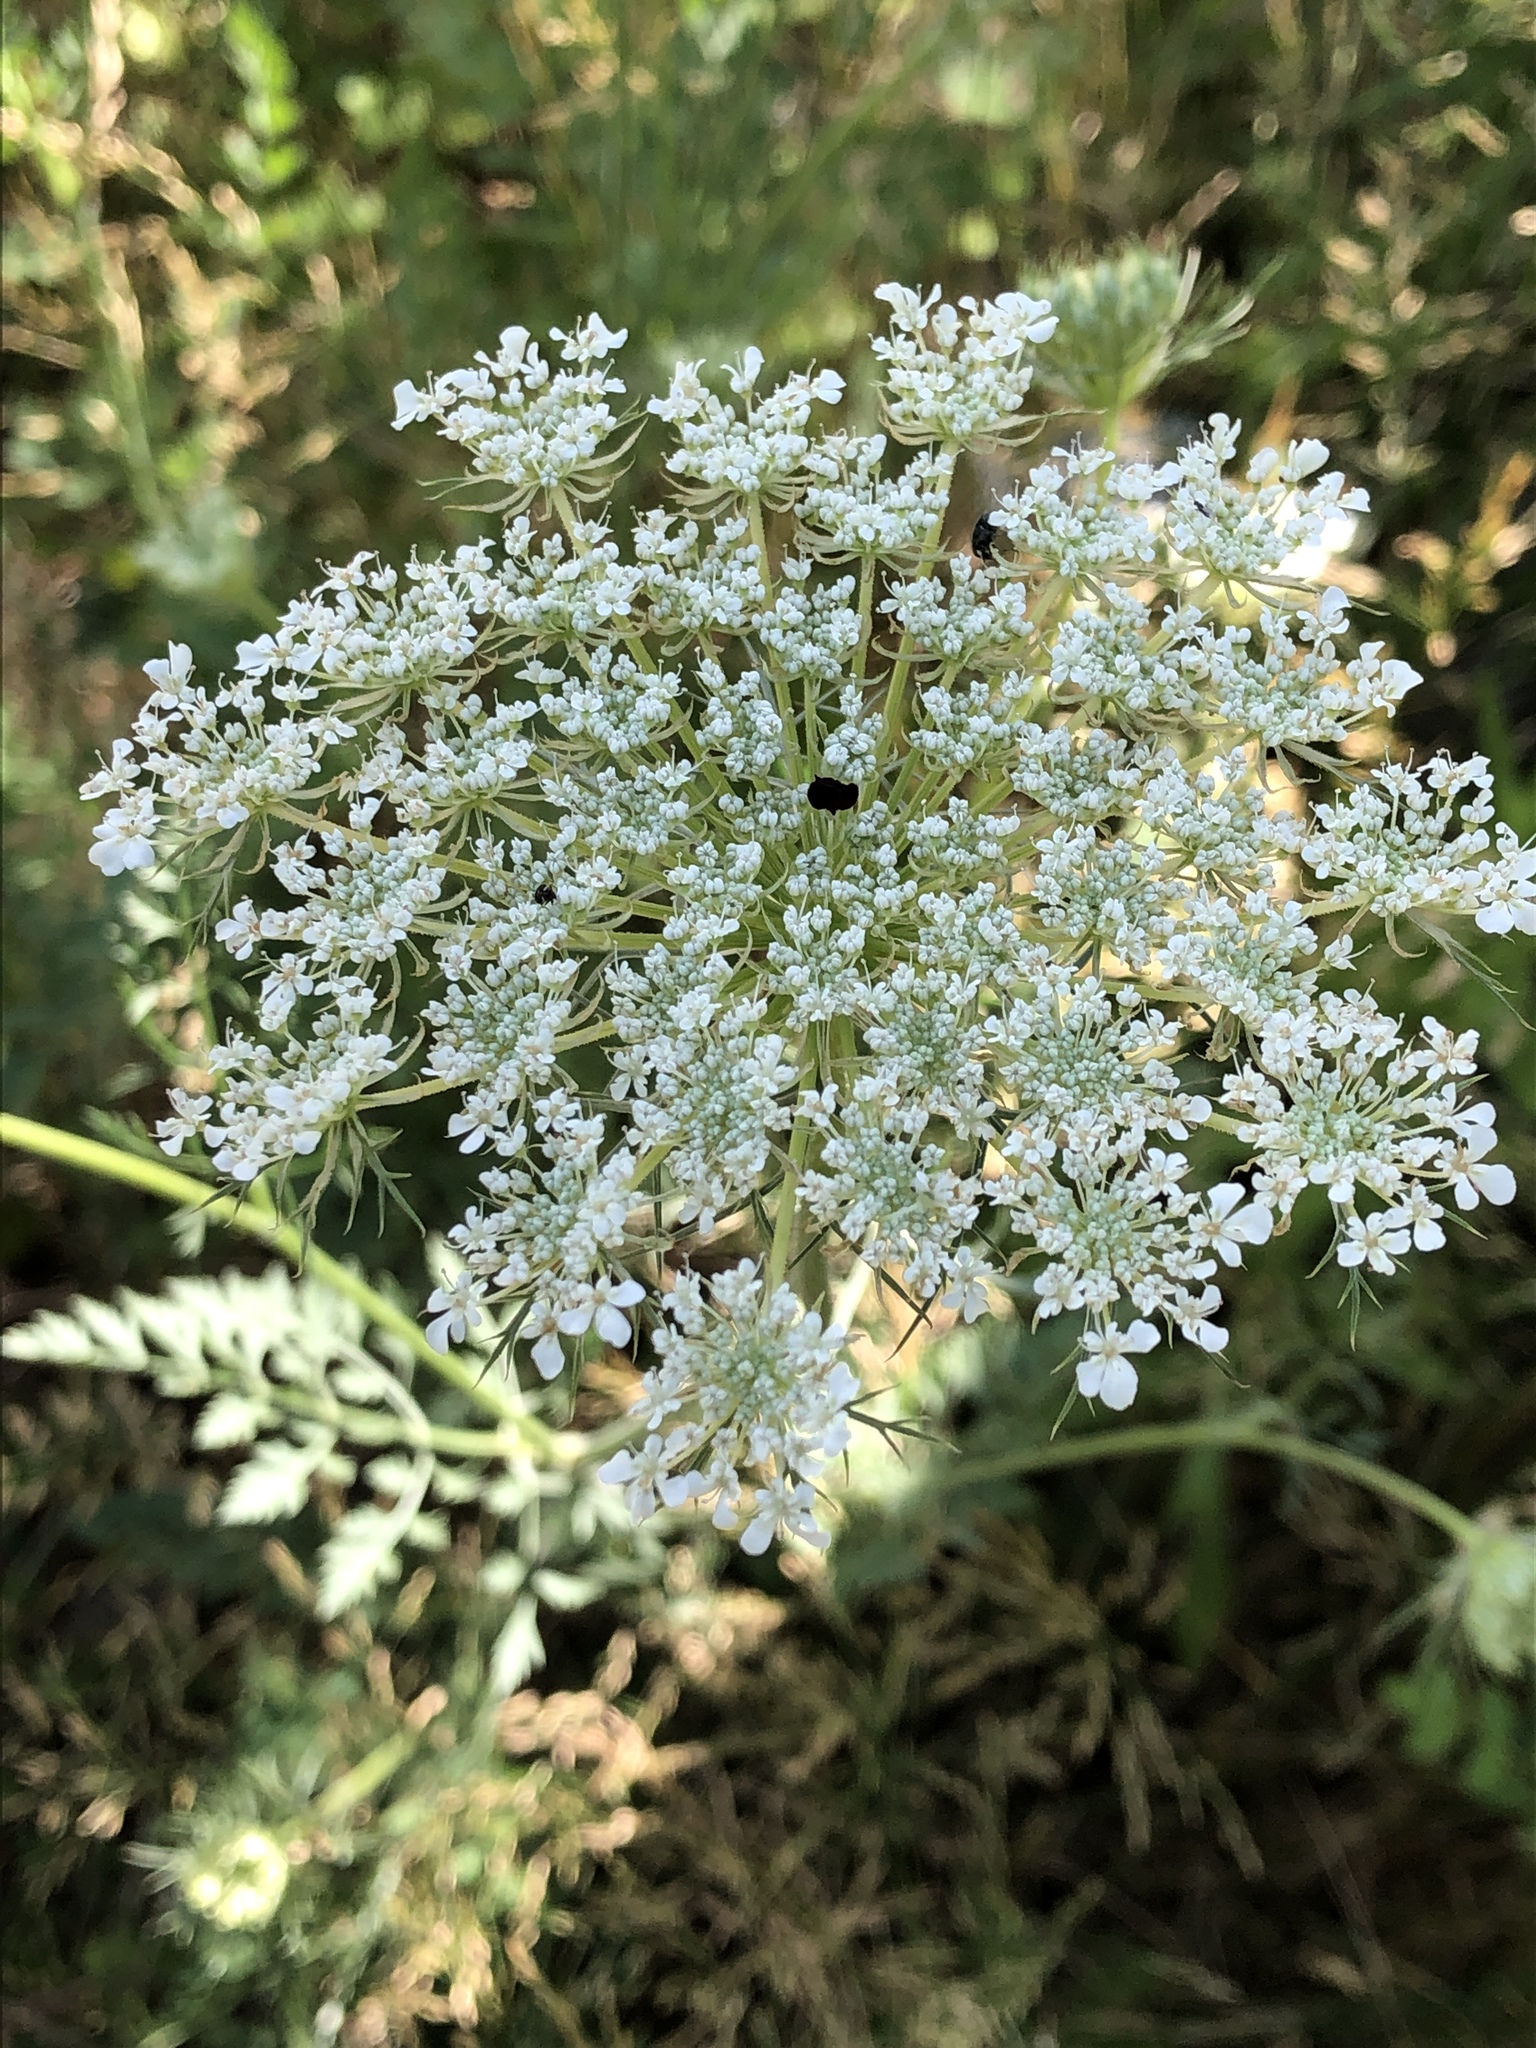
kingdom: Plantae
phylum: Tracheophyta
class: Magnoliopsida
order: Apiales
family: Apiaceae
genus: Daucus
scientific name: Daucus carota
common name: Wild carrot
